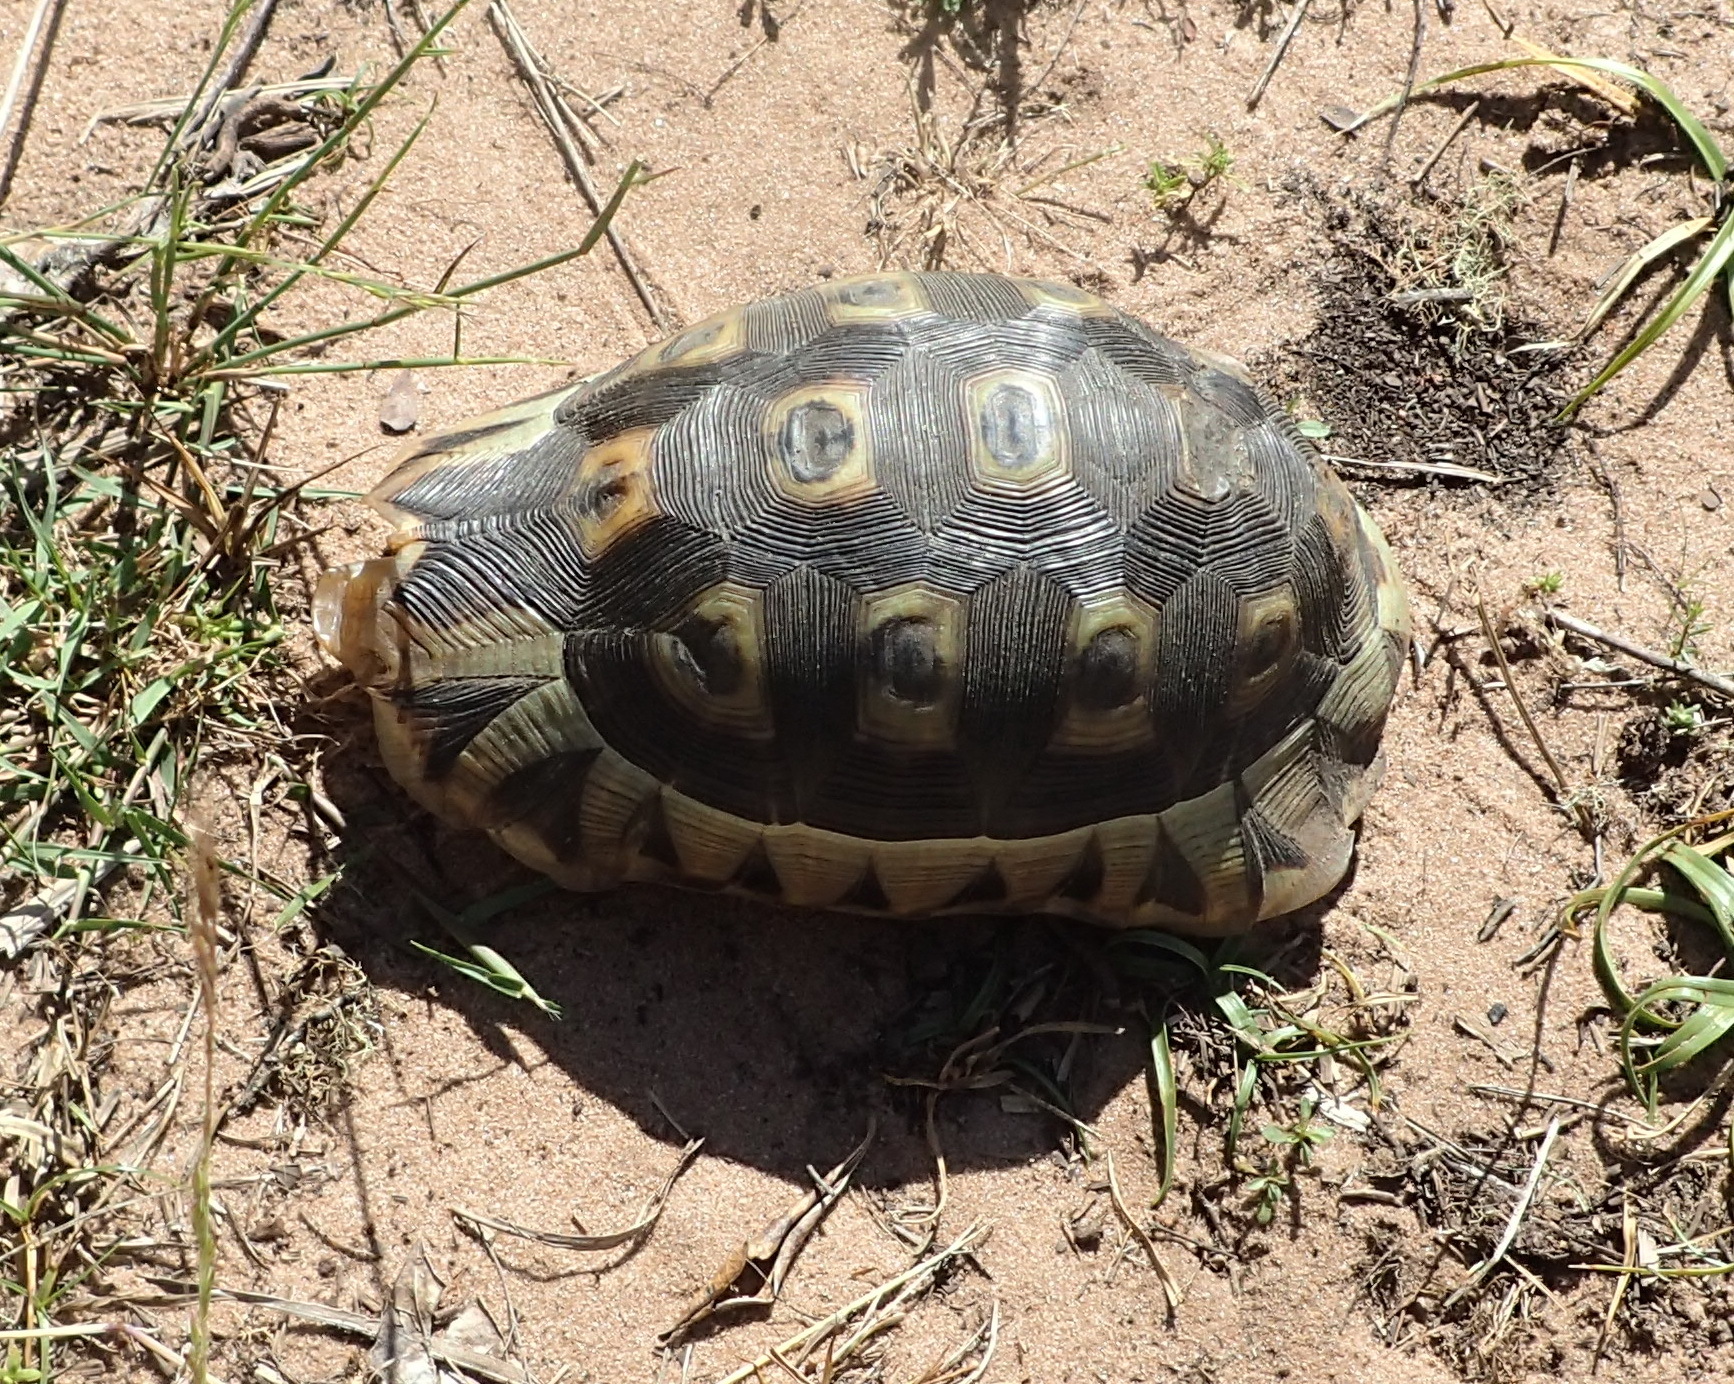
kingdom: Animalia
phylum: Chordata
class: Testudines
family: Testudinidae
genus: Chersina
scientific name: Chersina angulata
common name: South african bowsprit tortoise
